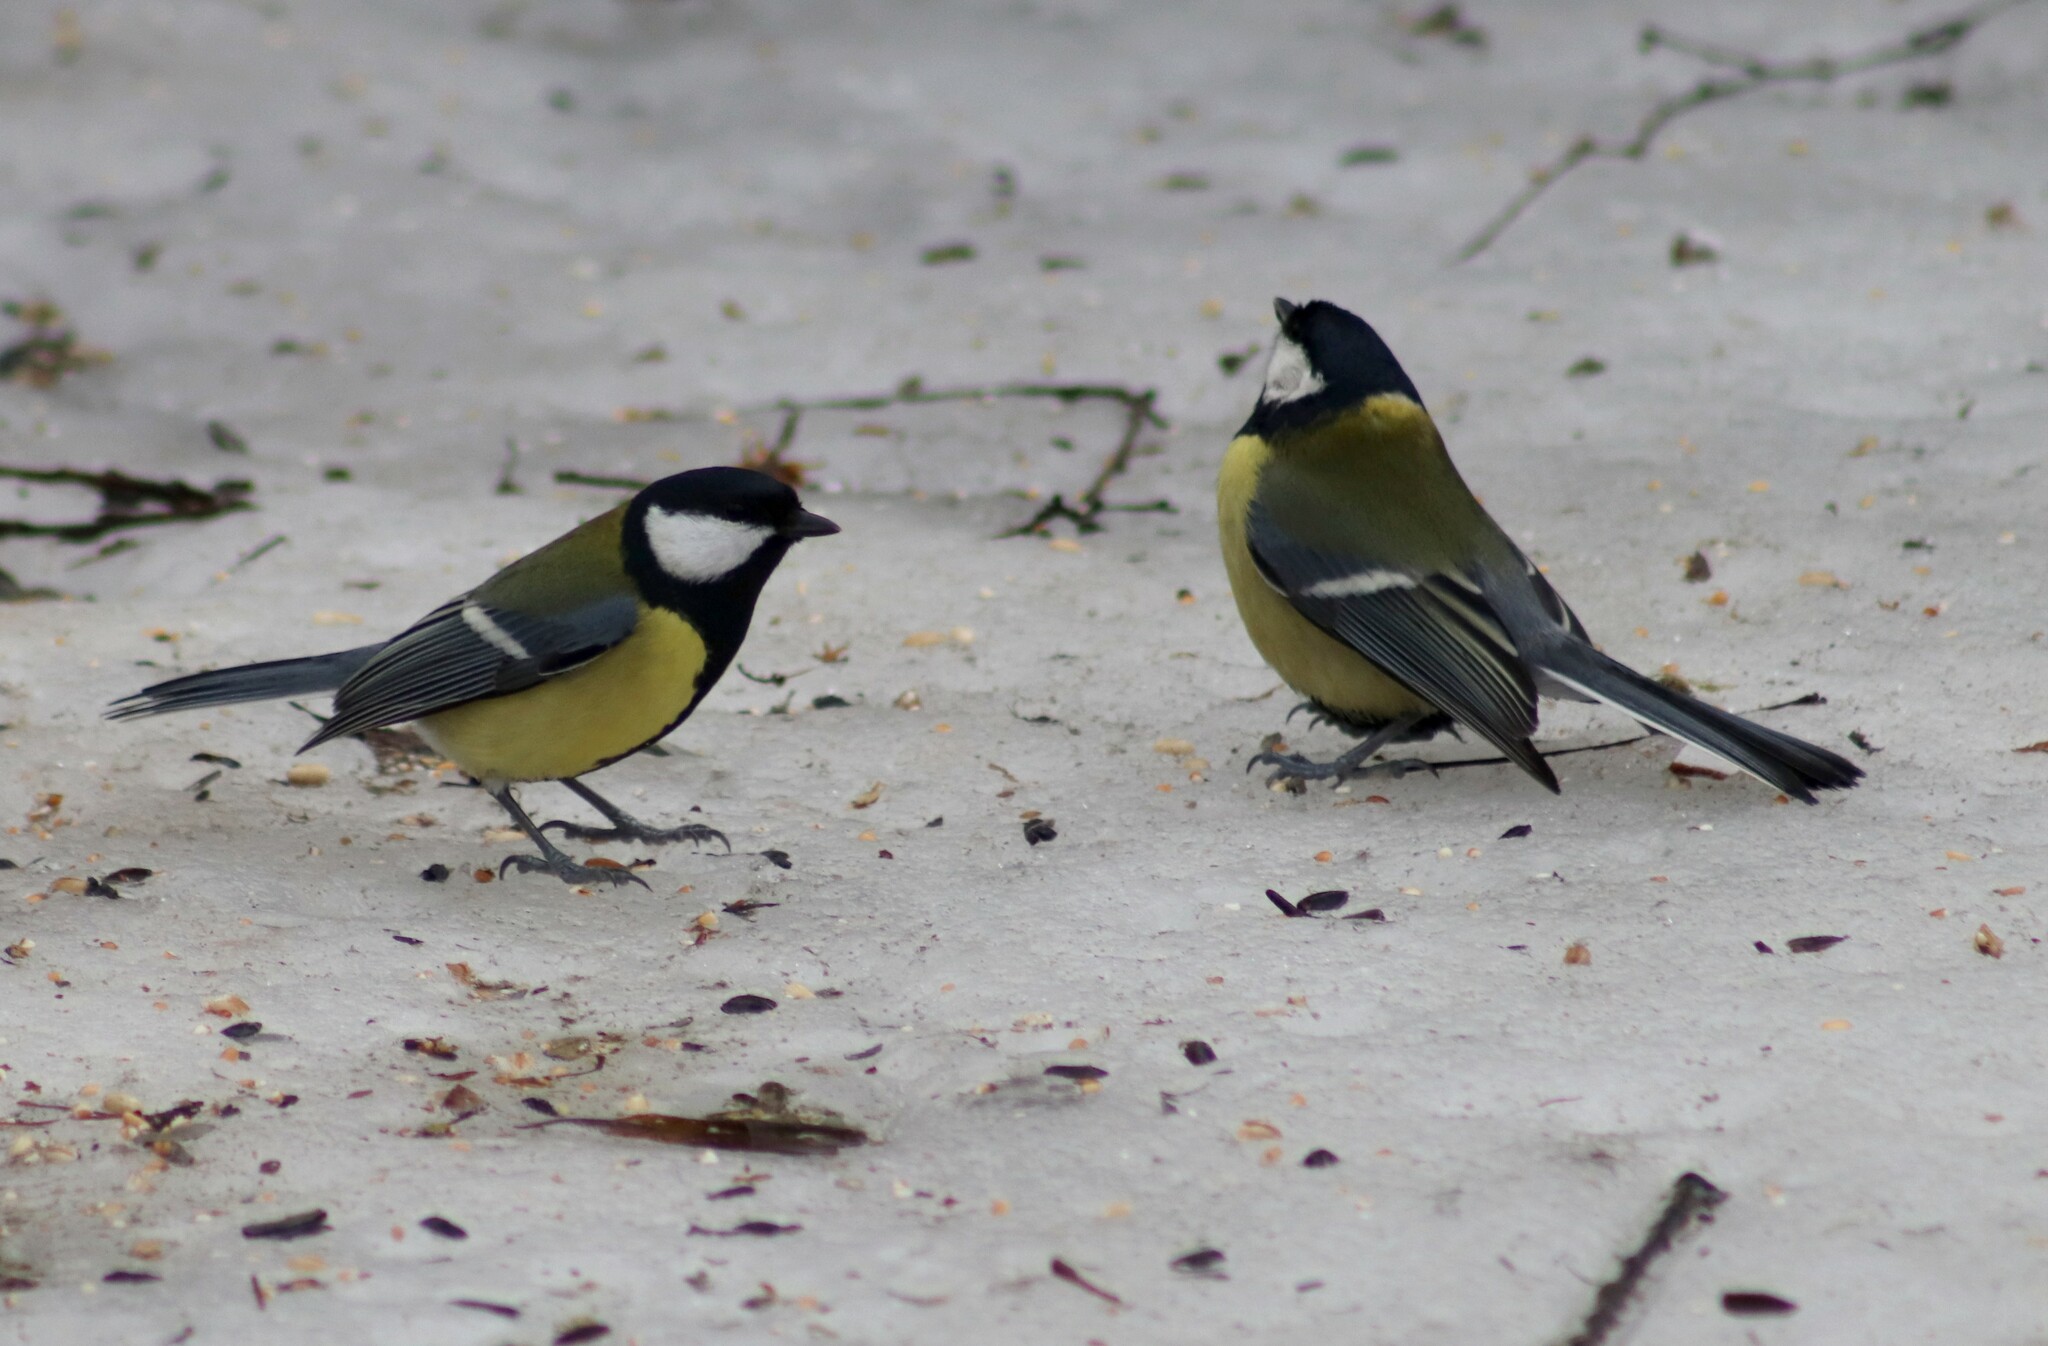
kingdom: Animalia
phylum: Chordata
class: Aves
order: Passeriformes
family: Paridae
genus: Parus
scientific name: Parus major
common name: Great tit
